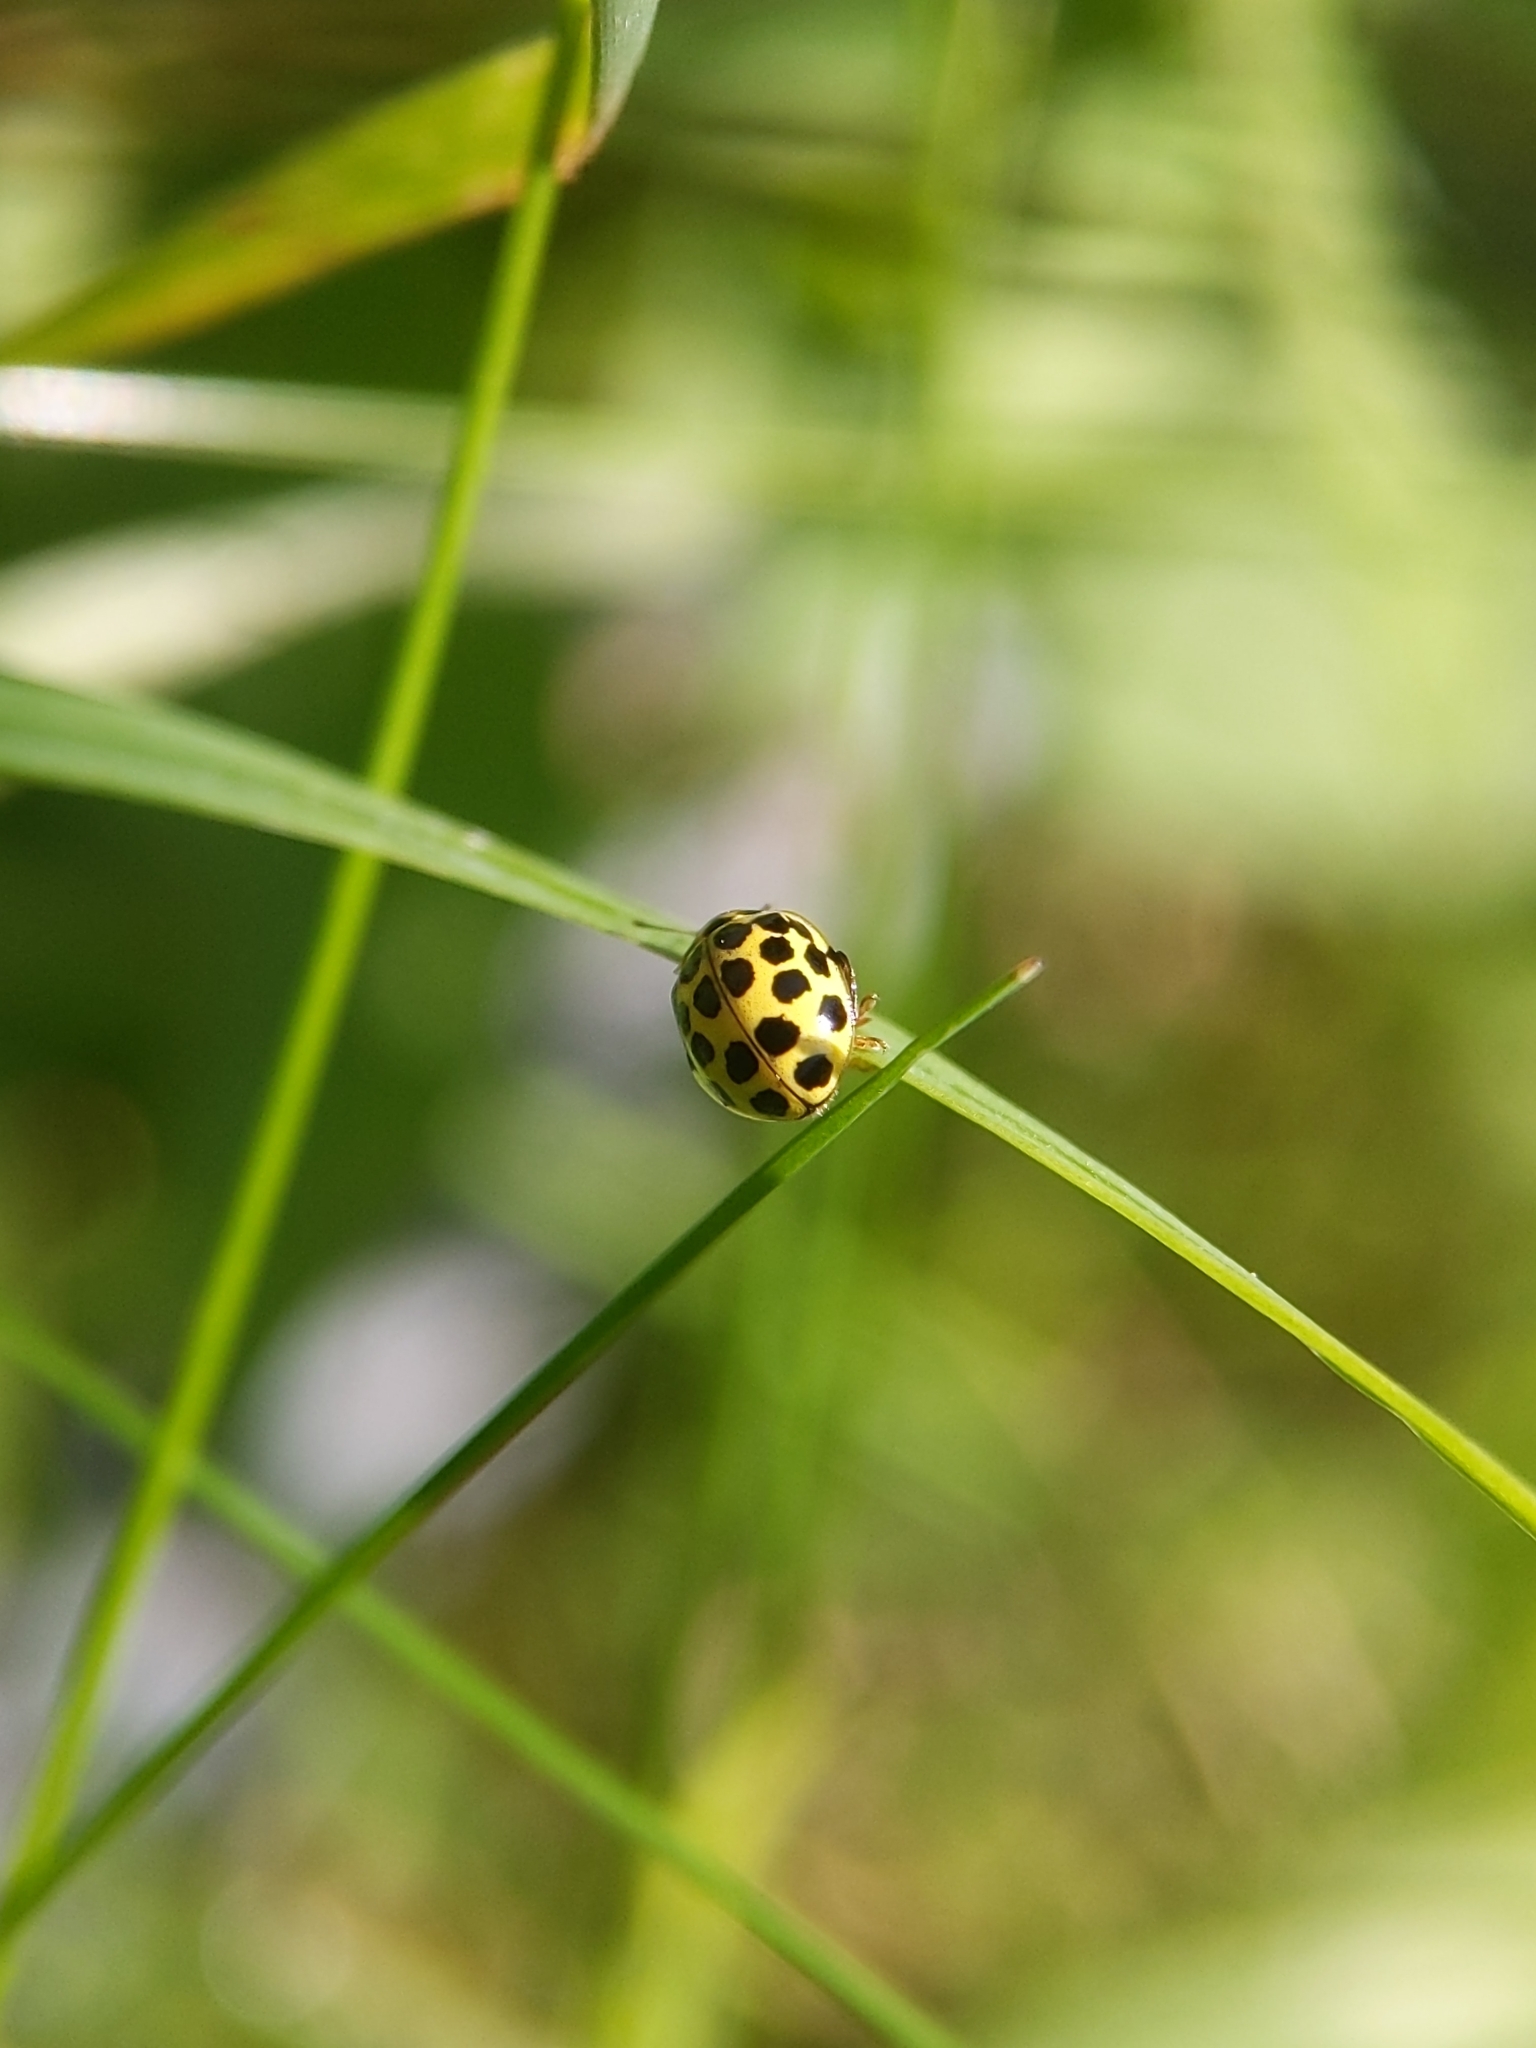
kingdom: Animalia
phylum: Arthropoda
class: Insecta
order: Coleoptera
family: Coccinellidae
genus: Psyllobora
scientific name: Psyllobora vigintiduopunctata
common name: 22-spot ladybird
